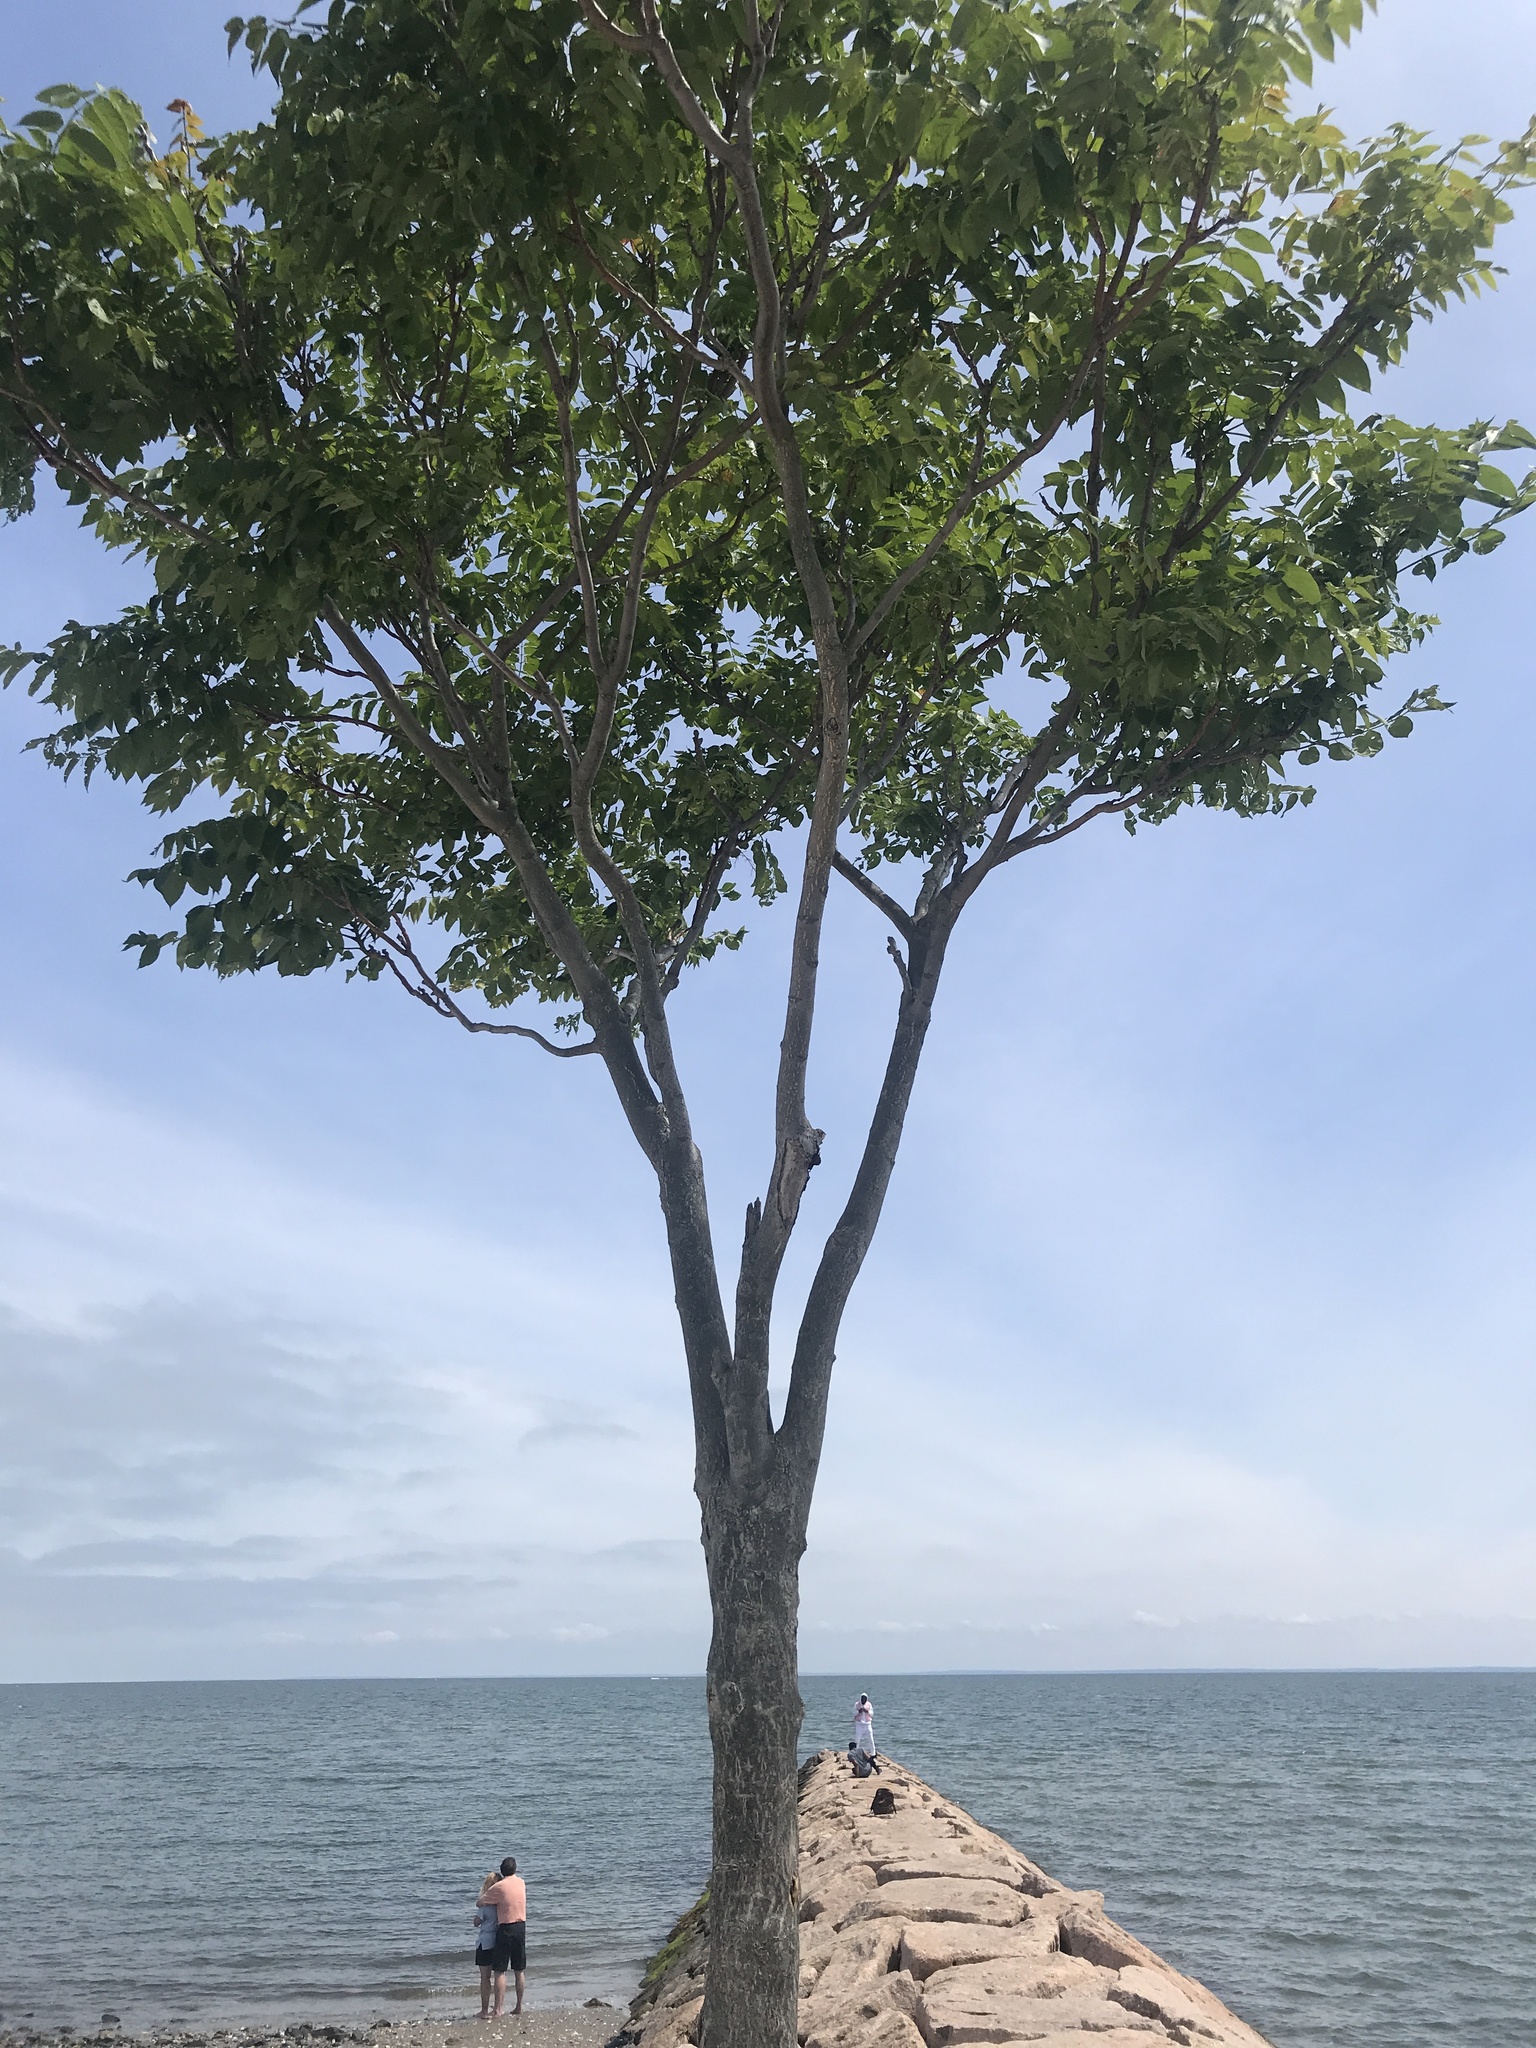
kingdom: Plantae
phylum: Tracheophyta
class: Magnoliopsida
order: Sapindales
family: Simaroubaceae
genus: Ailanthus
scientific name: Ailanthus altissima
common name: Tree-of-heaven
